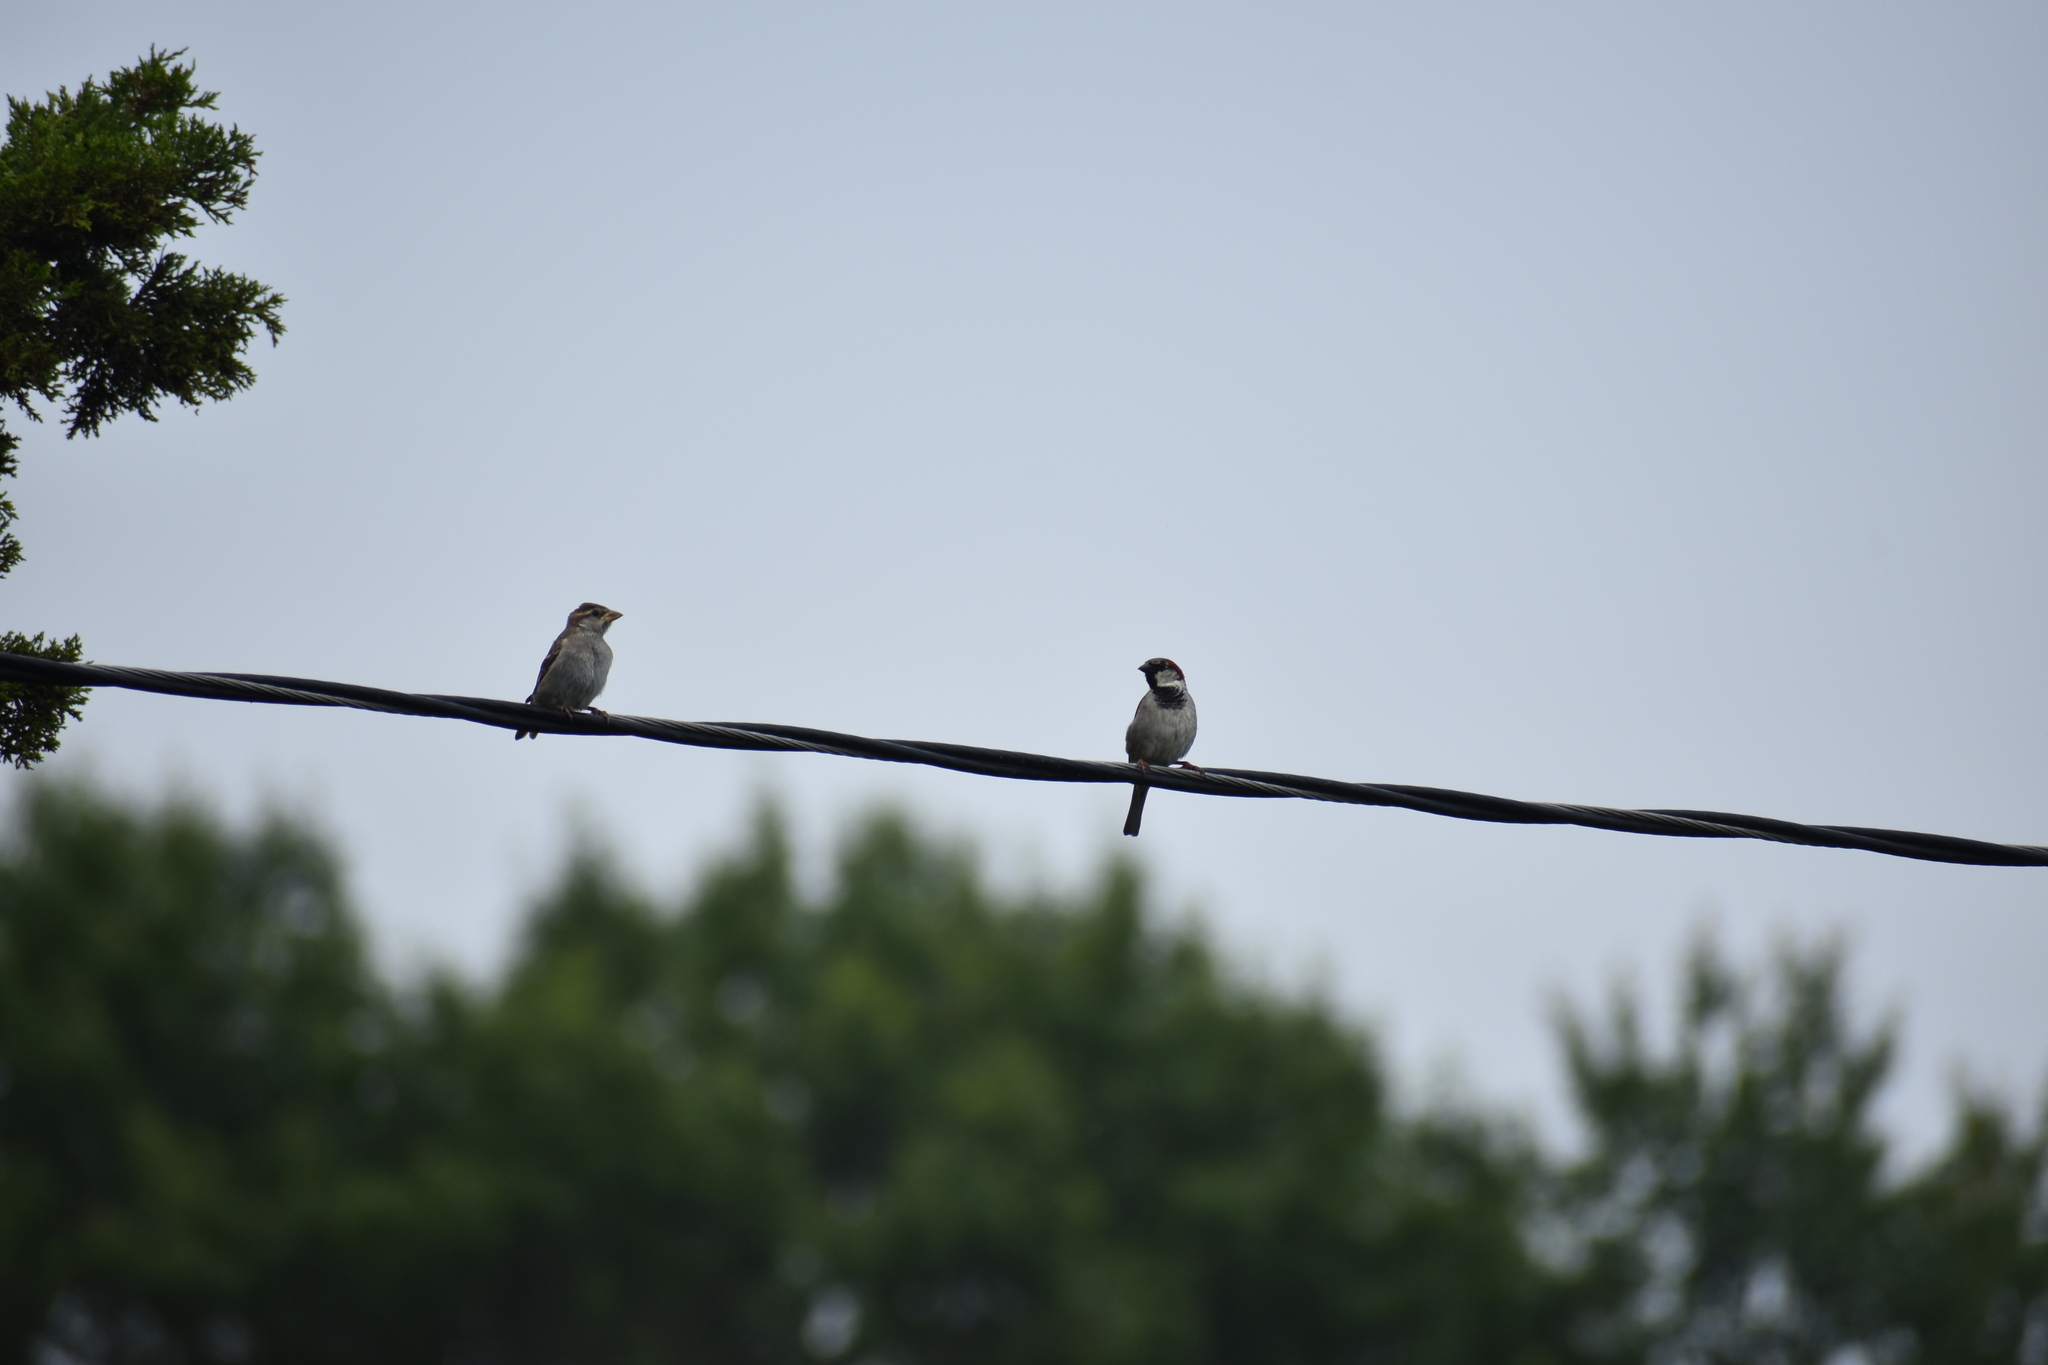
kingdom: Animalia
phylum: Chordata
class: Aves
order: Passeriformes
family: Passeridae
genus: Passer
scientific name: Passer domesticus
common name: House sparrow
